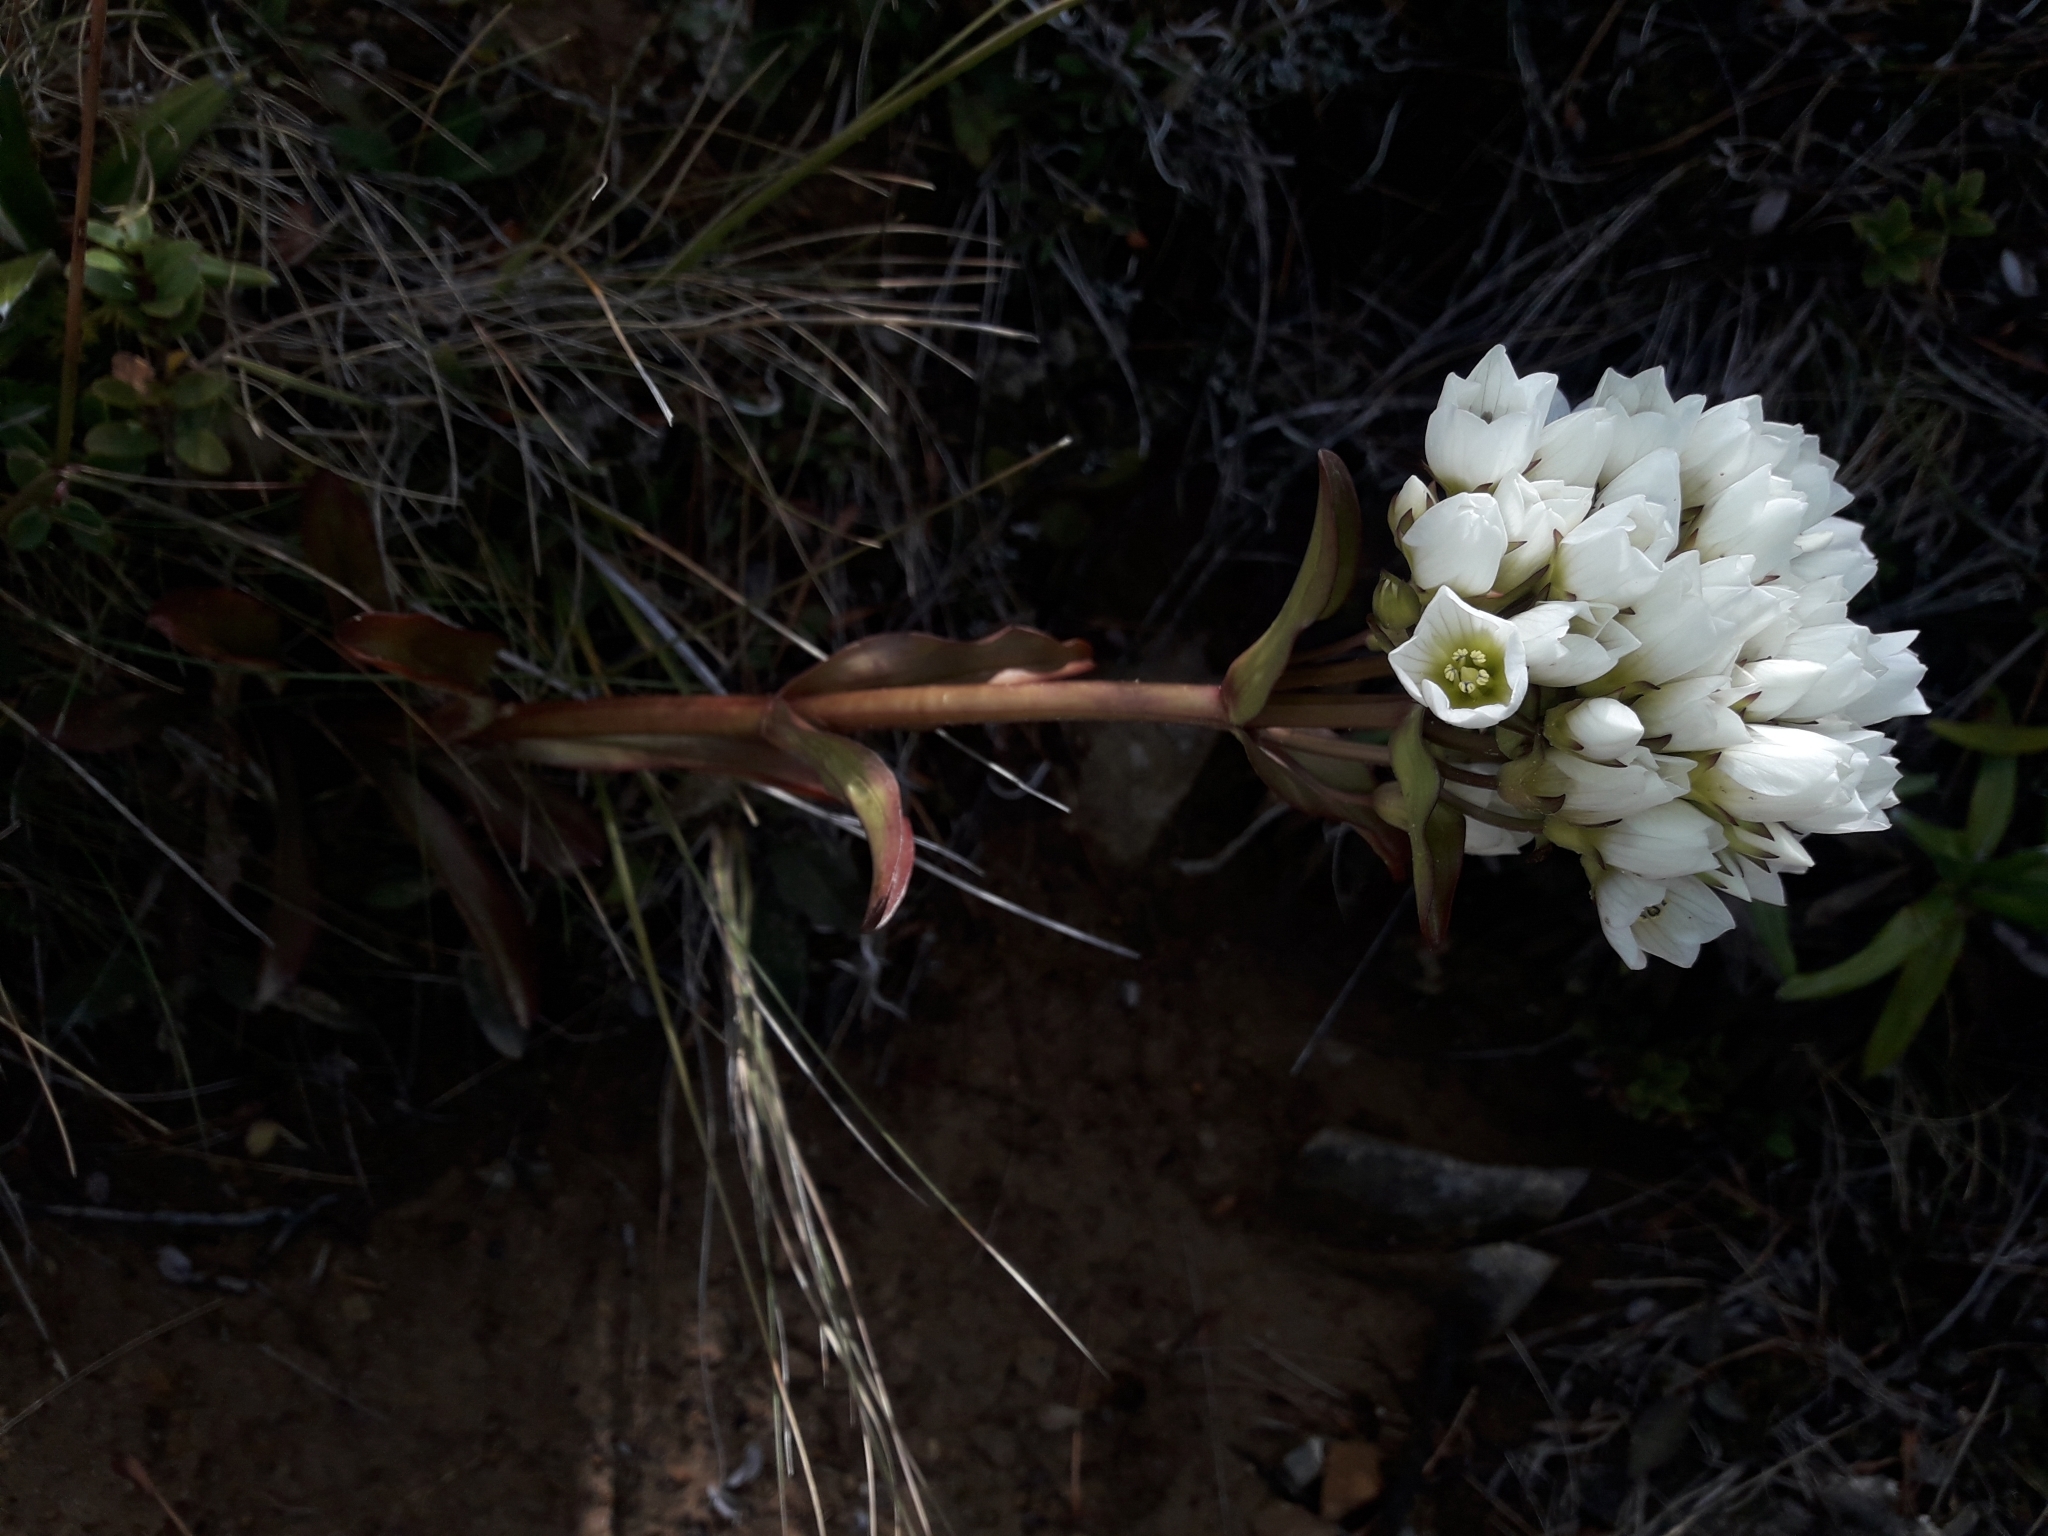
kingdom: Plantae
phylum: Tracheophyta
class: Magnoliopsida
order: Gentianales
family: Gentianaceae
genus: Gentianella
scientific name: Gentianella corymbifera
